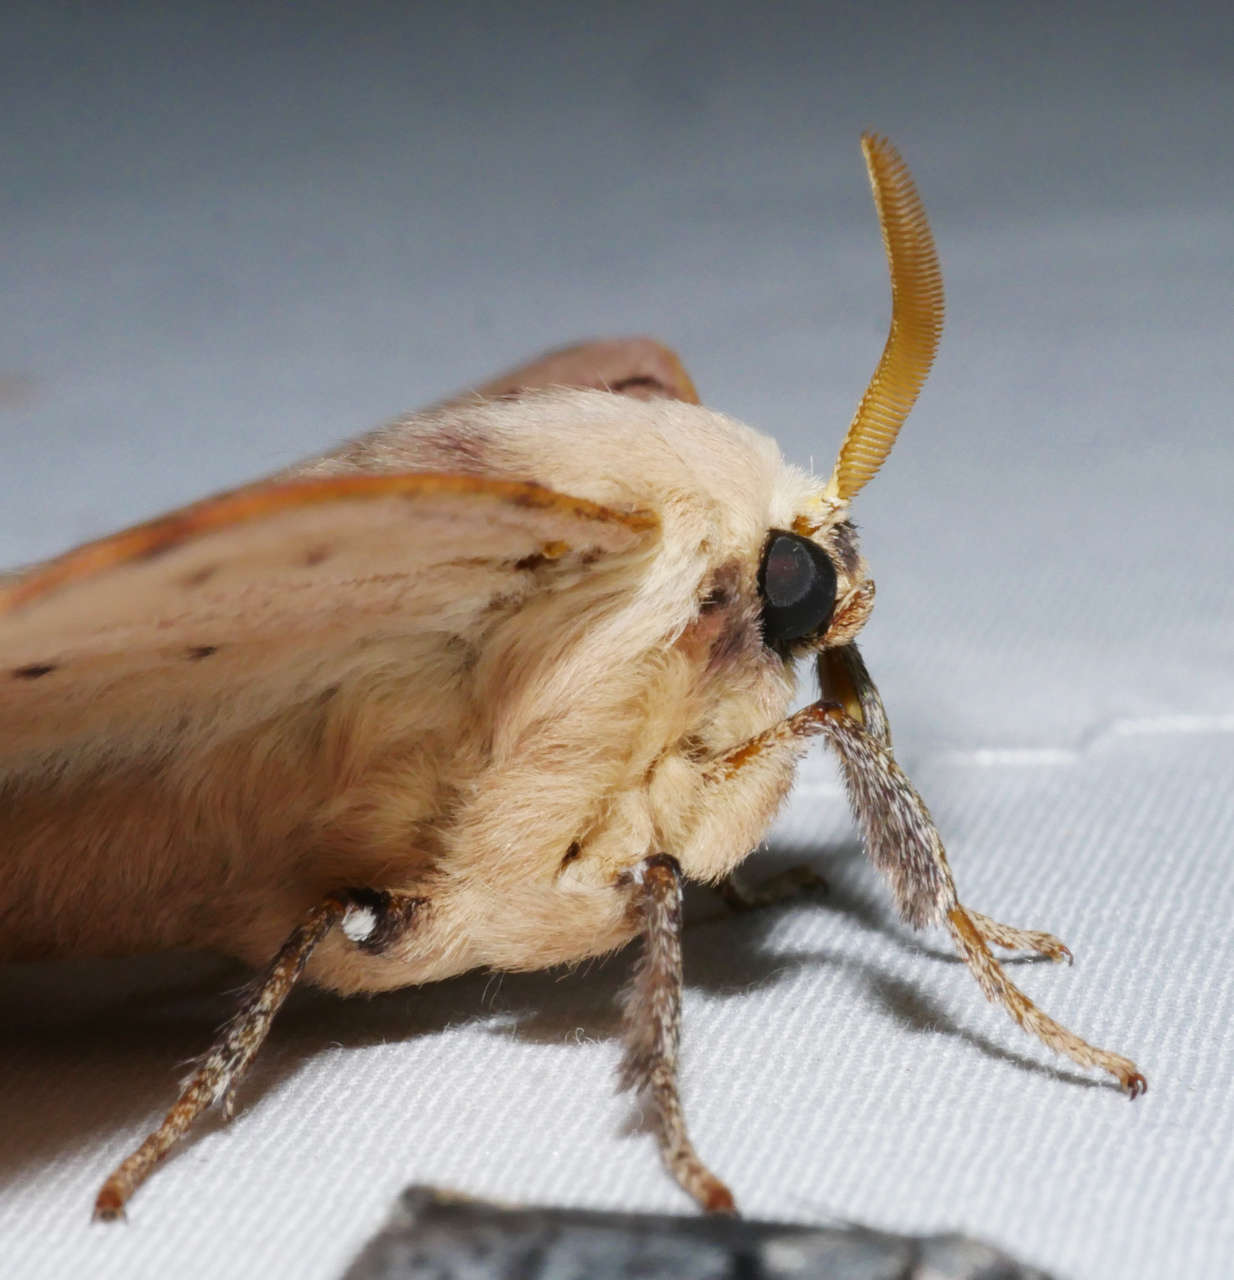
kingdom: Animalia
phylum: Arthropoda
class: Insecta
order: Lepidoptera
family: Anthelidae
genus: Anthela
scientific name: Anthela varia
